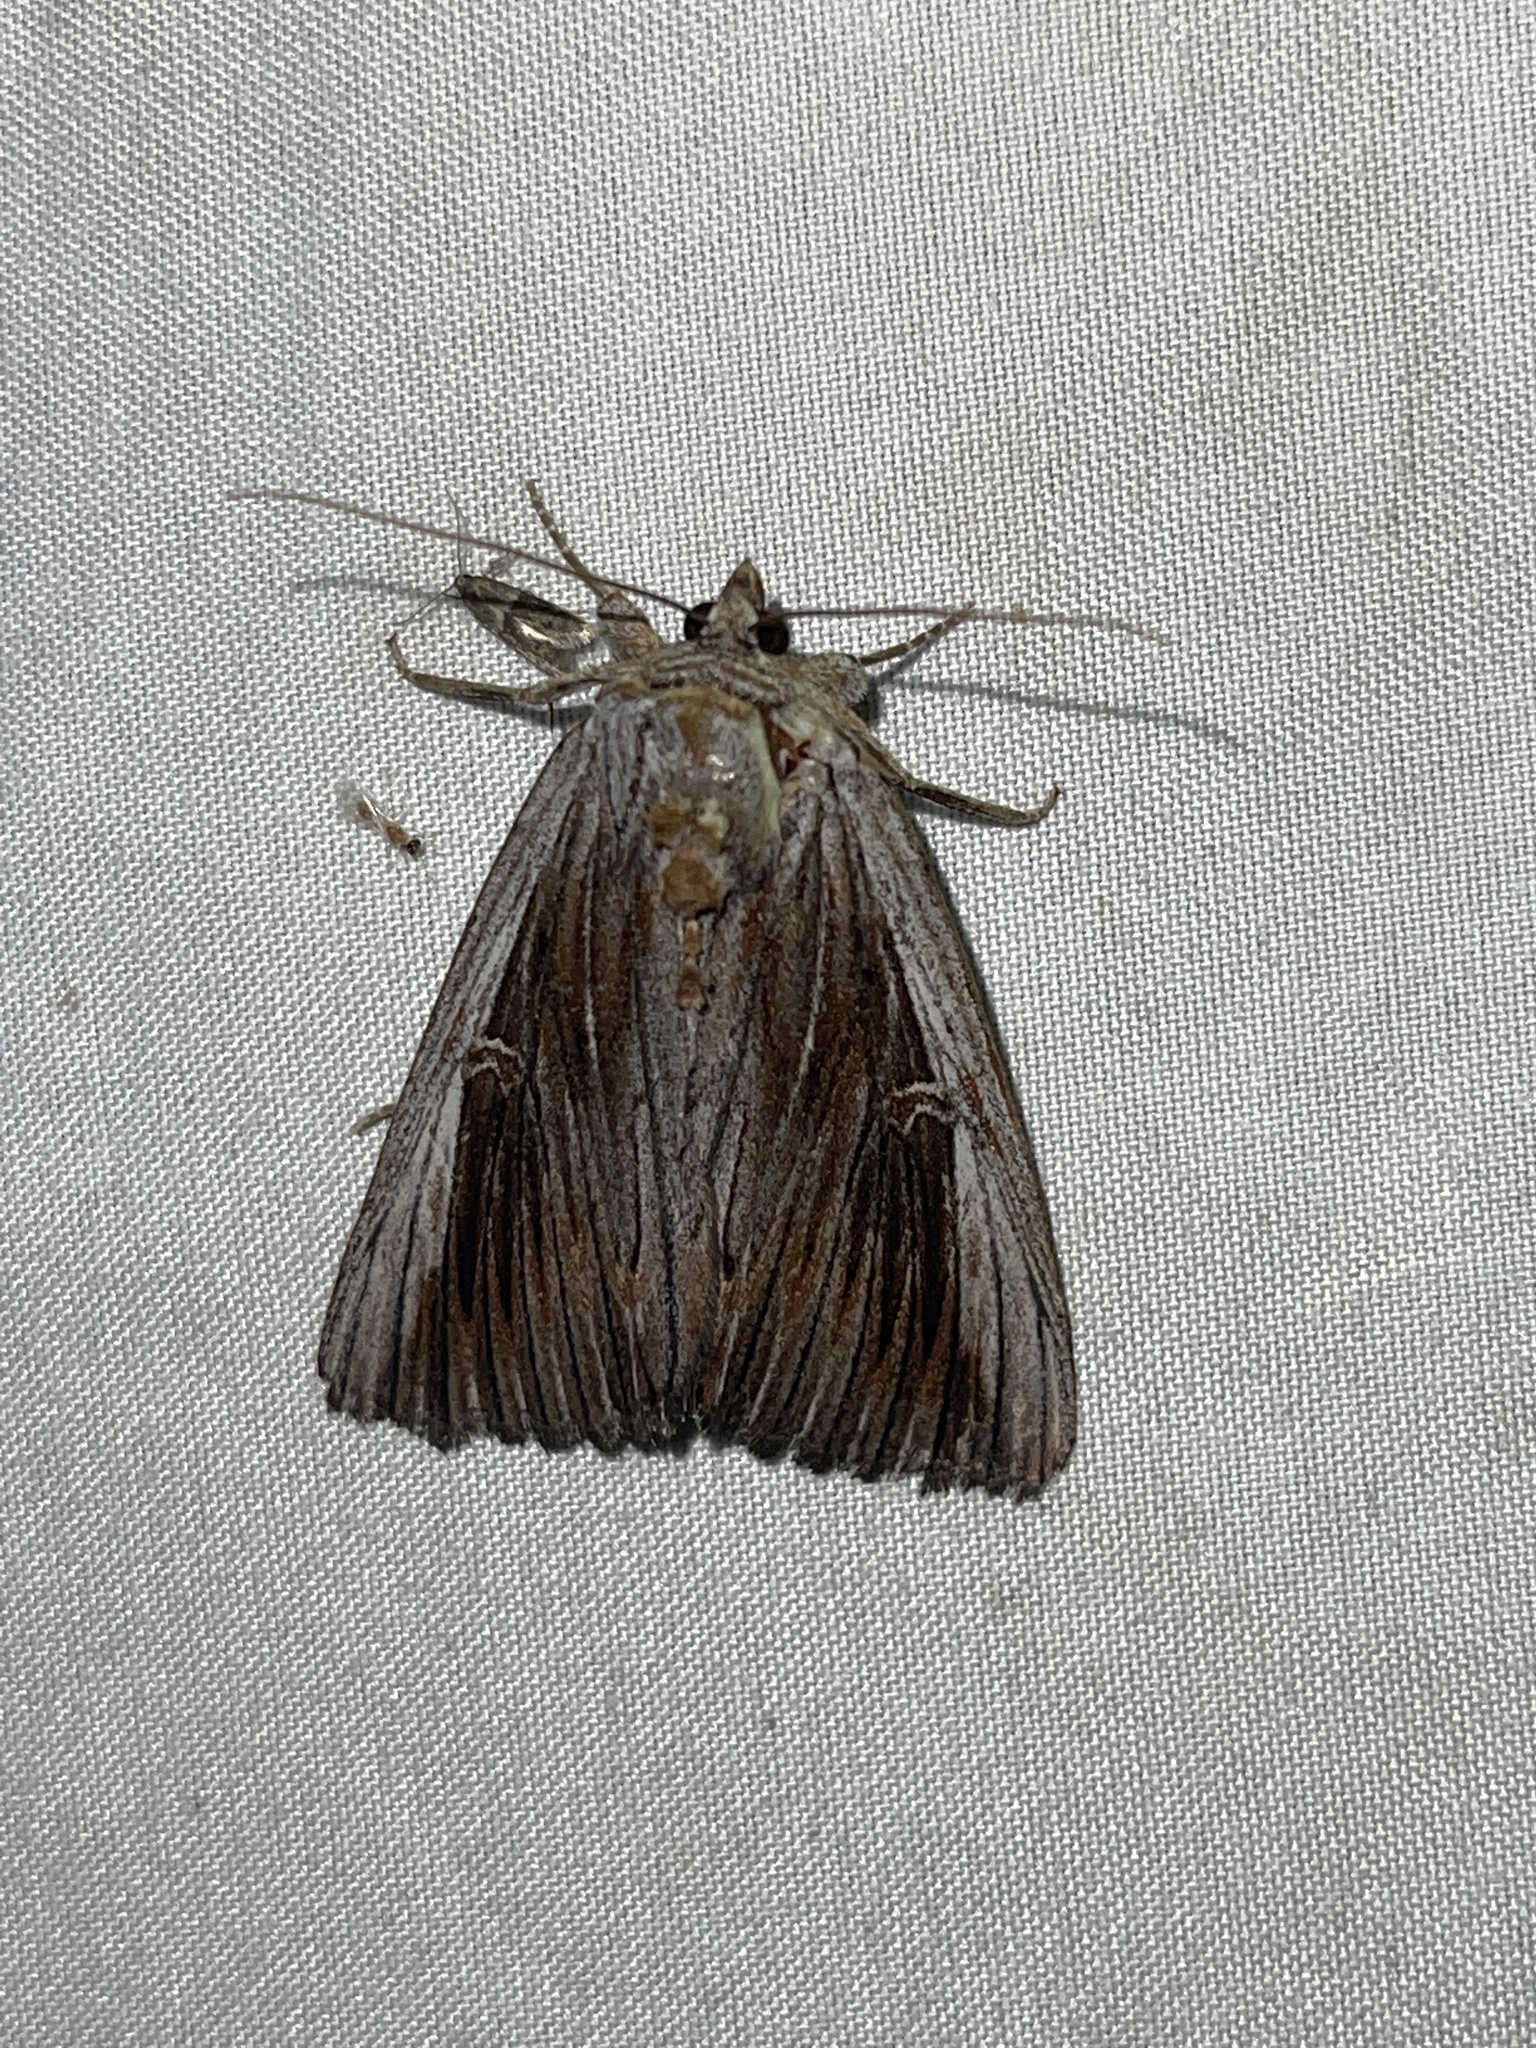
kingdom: Animalia
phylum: Arthropoda
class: Insecta
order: Lepidoptera
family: Erebidae
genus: Catocala
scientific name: Catocala herodias
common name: Pine barrens underwing
